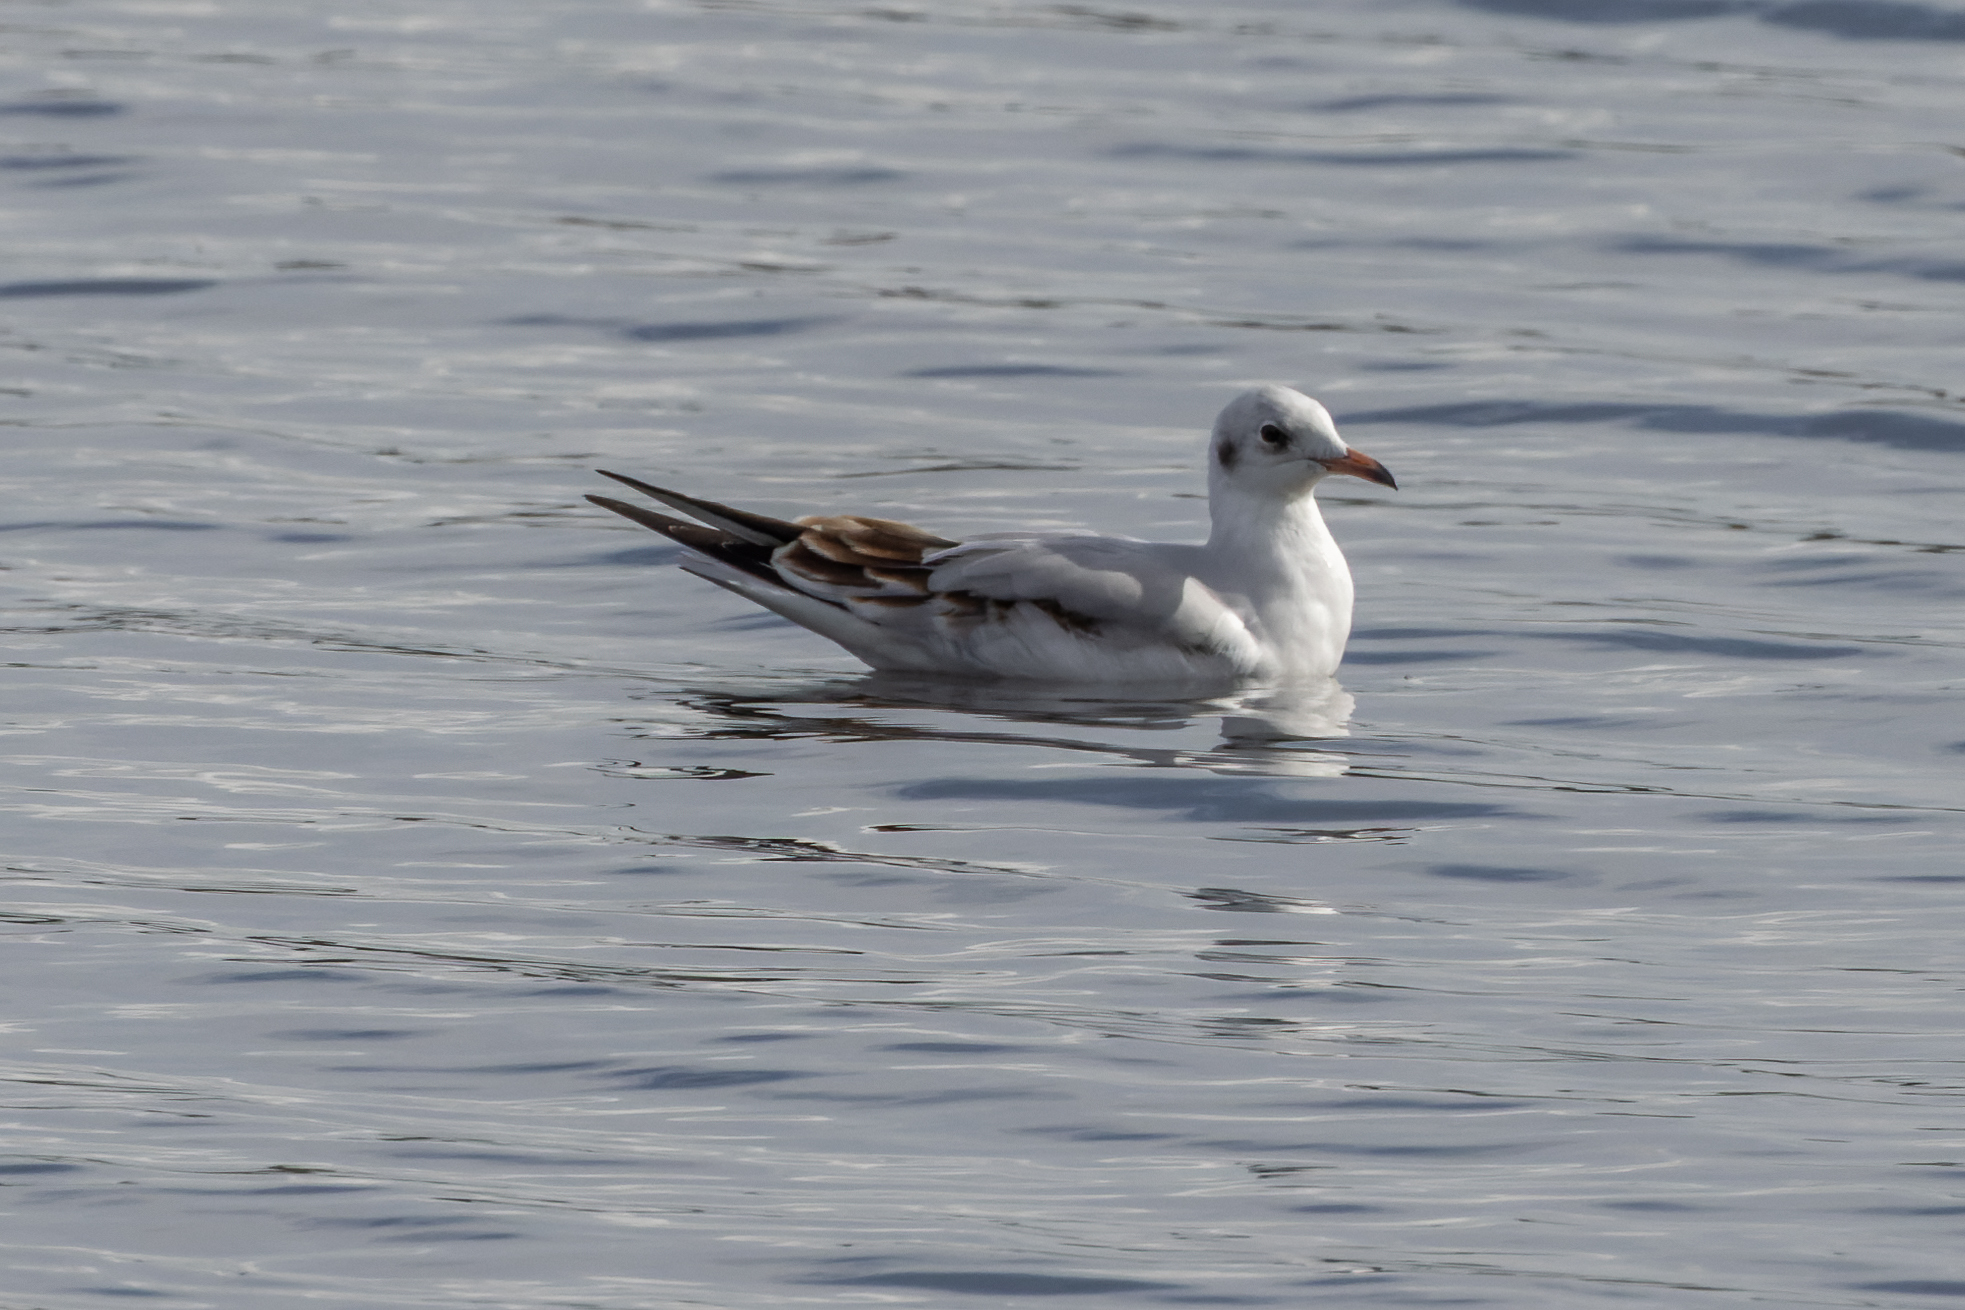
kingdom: Animalia
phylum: Chordata
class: Aves
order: Charadriiformes
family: Laridae
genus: Chroicocephalus
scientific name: Chroicocephalus ridibundus
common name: Black-headed gull
